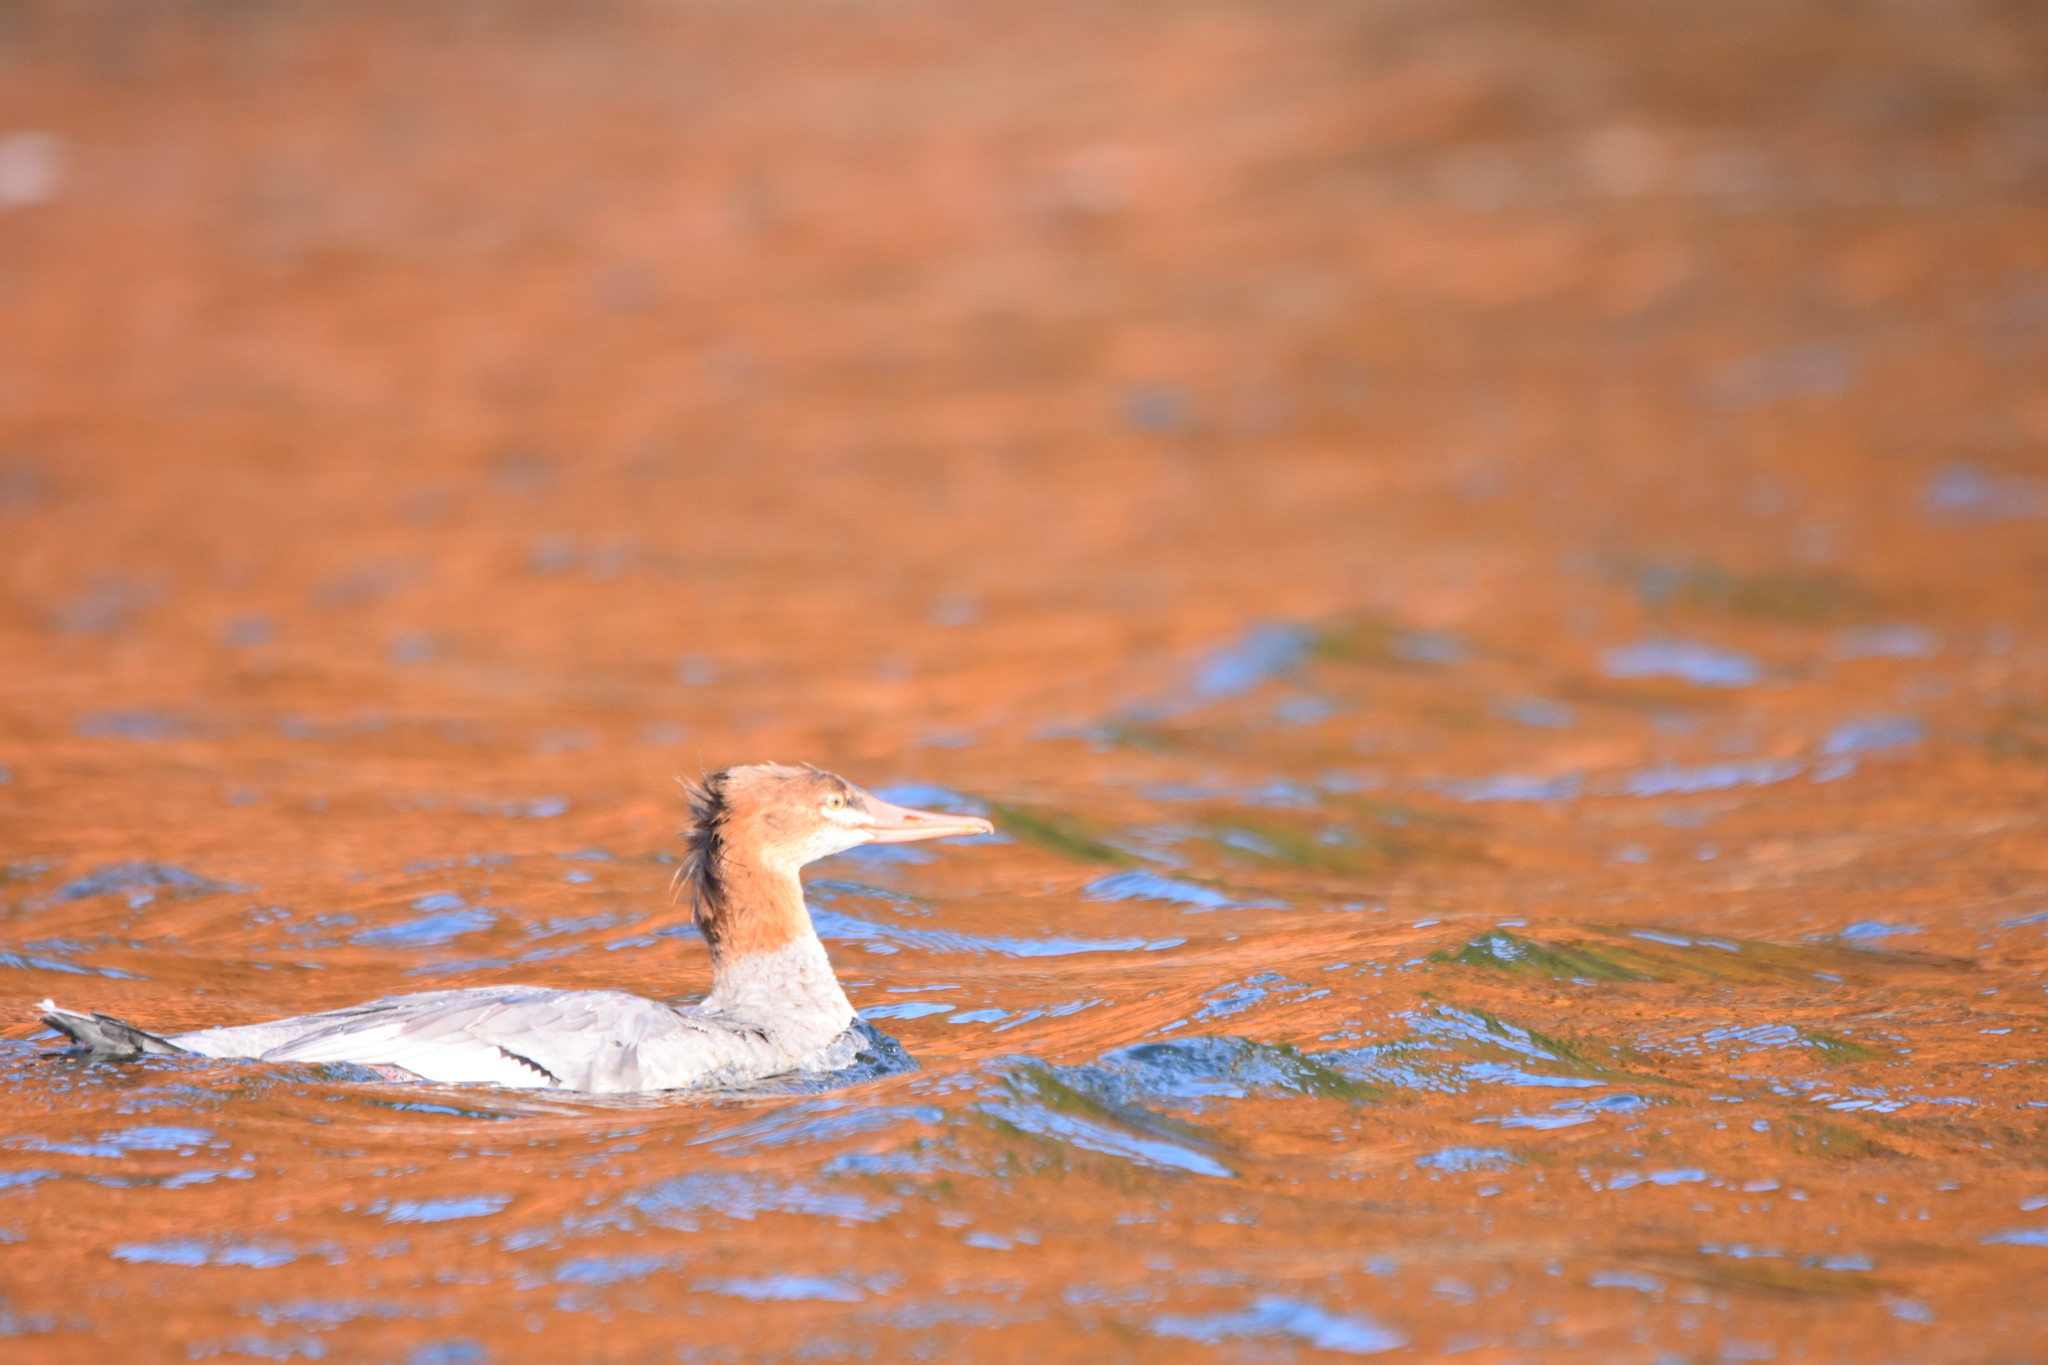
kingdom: Animalia
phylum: Chordata
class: Aves
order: Anseriformes
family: Anatidae
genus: Mergus
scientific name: Mergus merganser
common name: Common merganser
